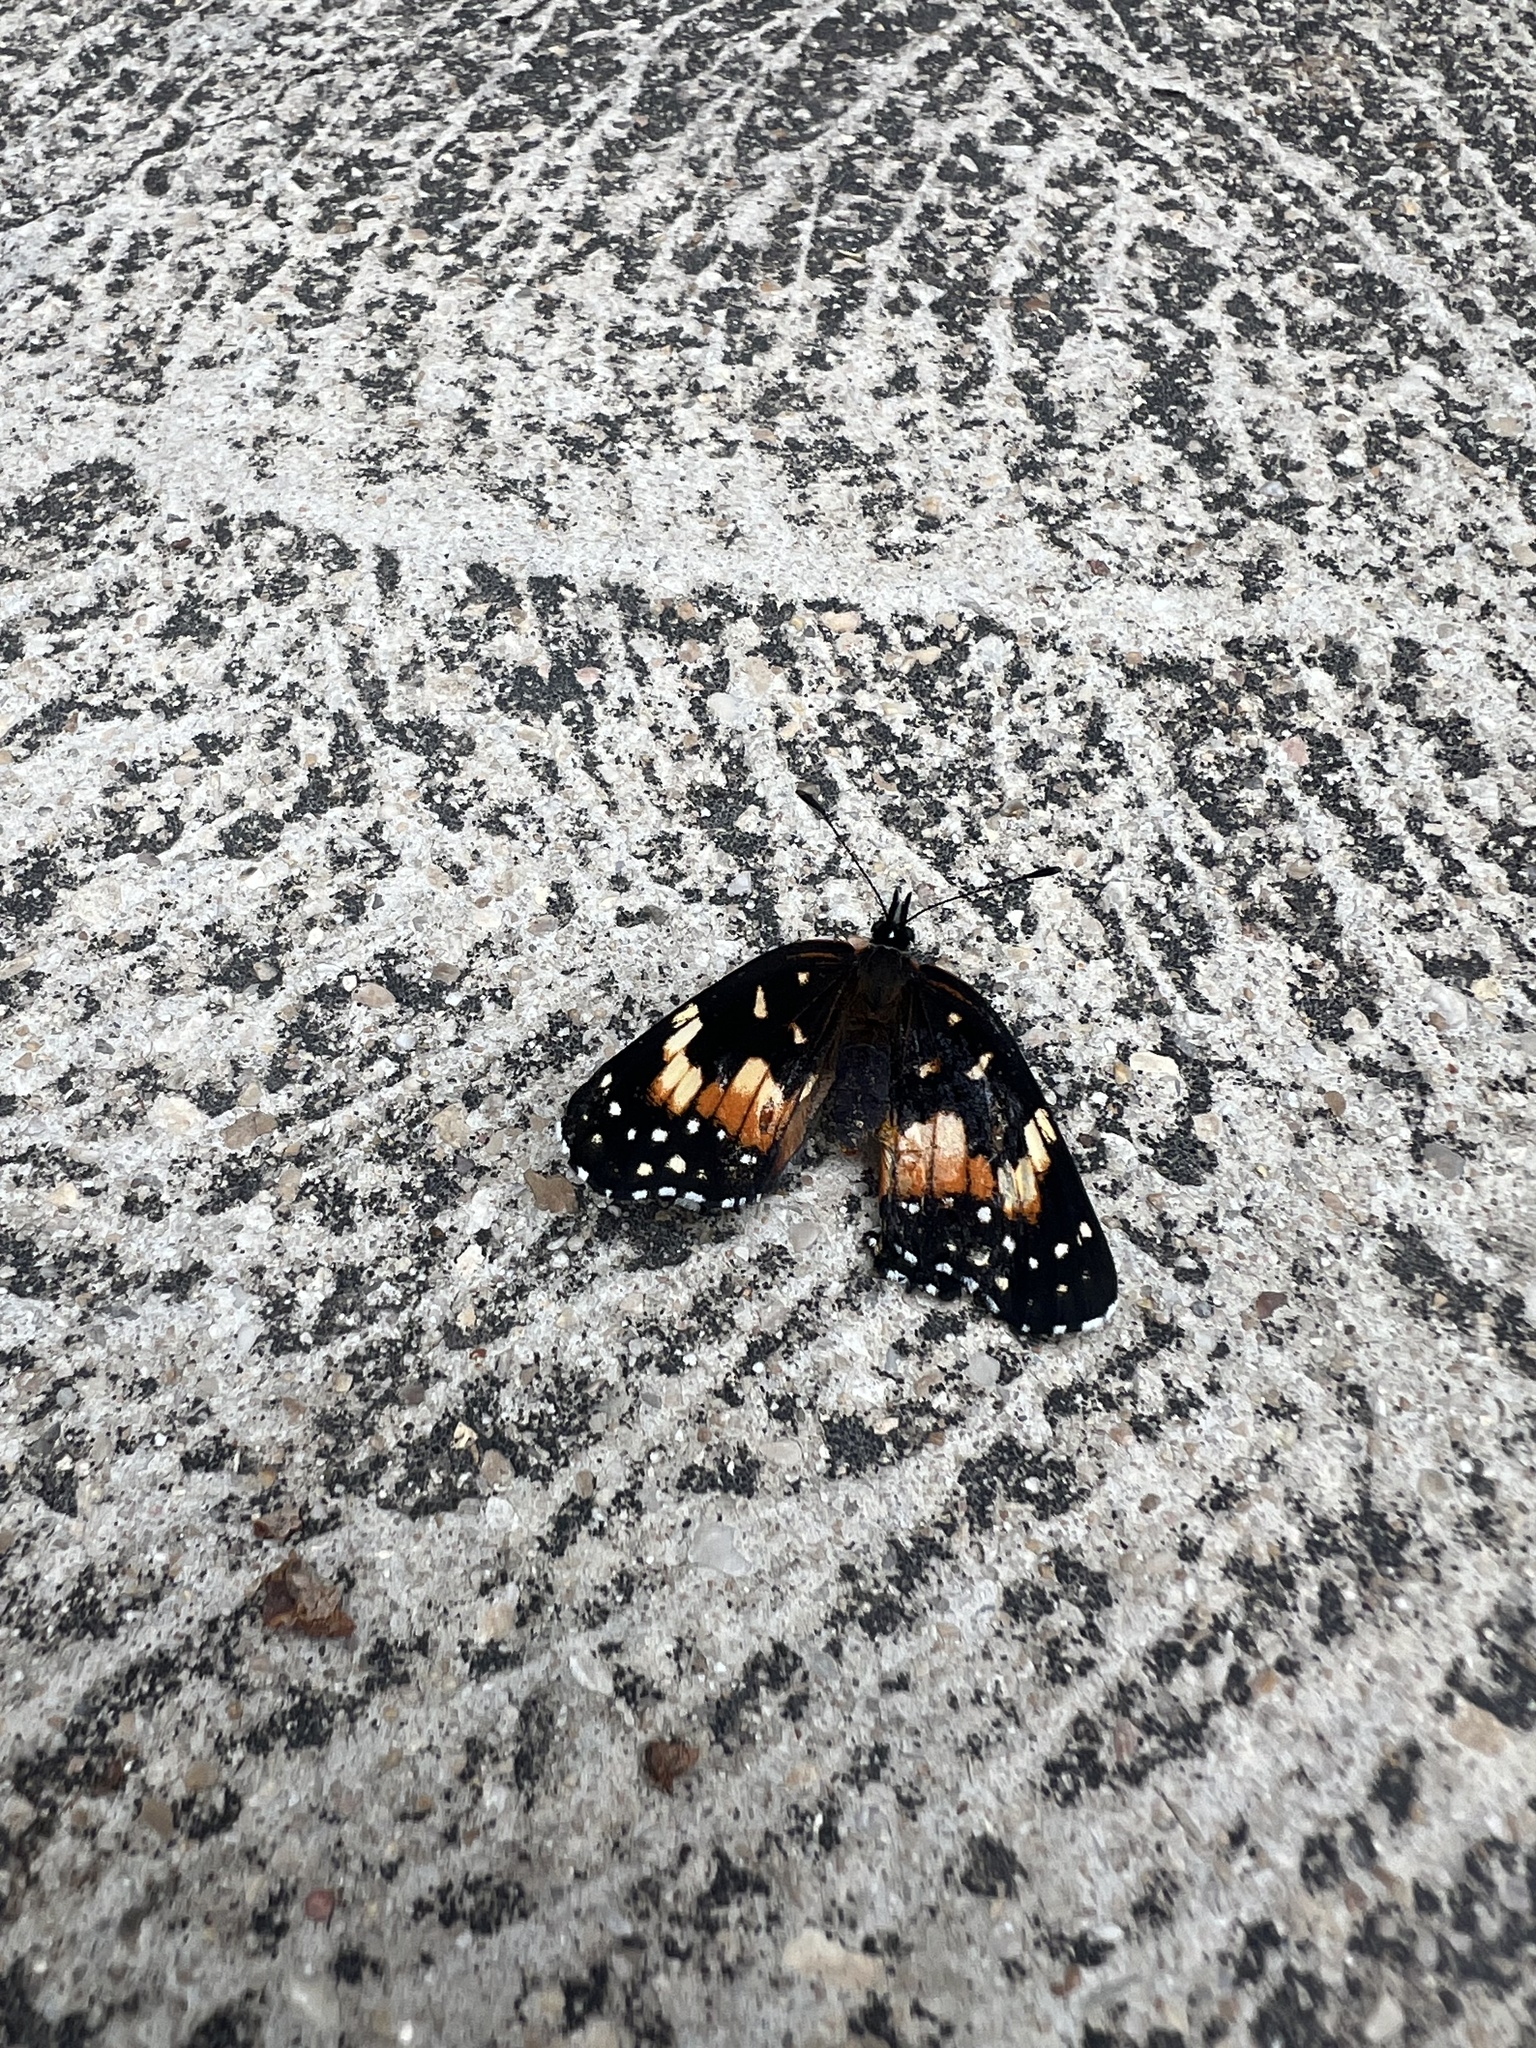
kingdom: Animalia
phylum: Arthropoda
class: Insecta
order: Lepidoptera
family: Nymphalidae
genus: Chlosyne
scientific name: Chlosyne lacinia
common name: Bordered patch
